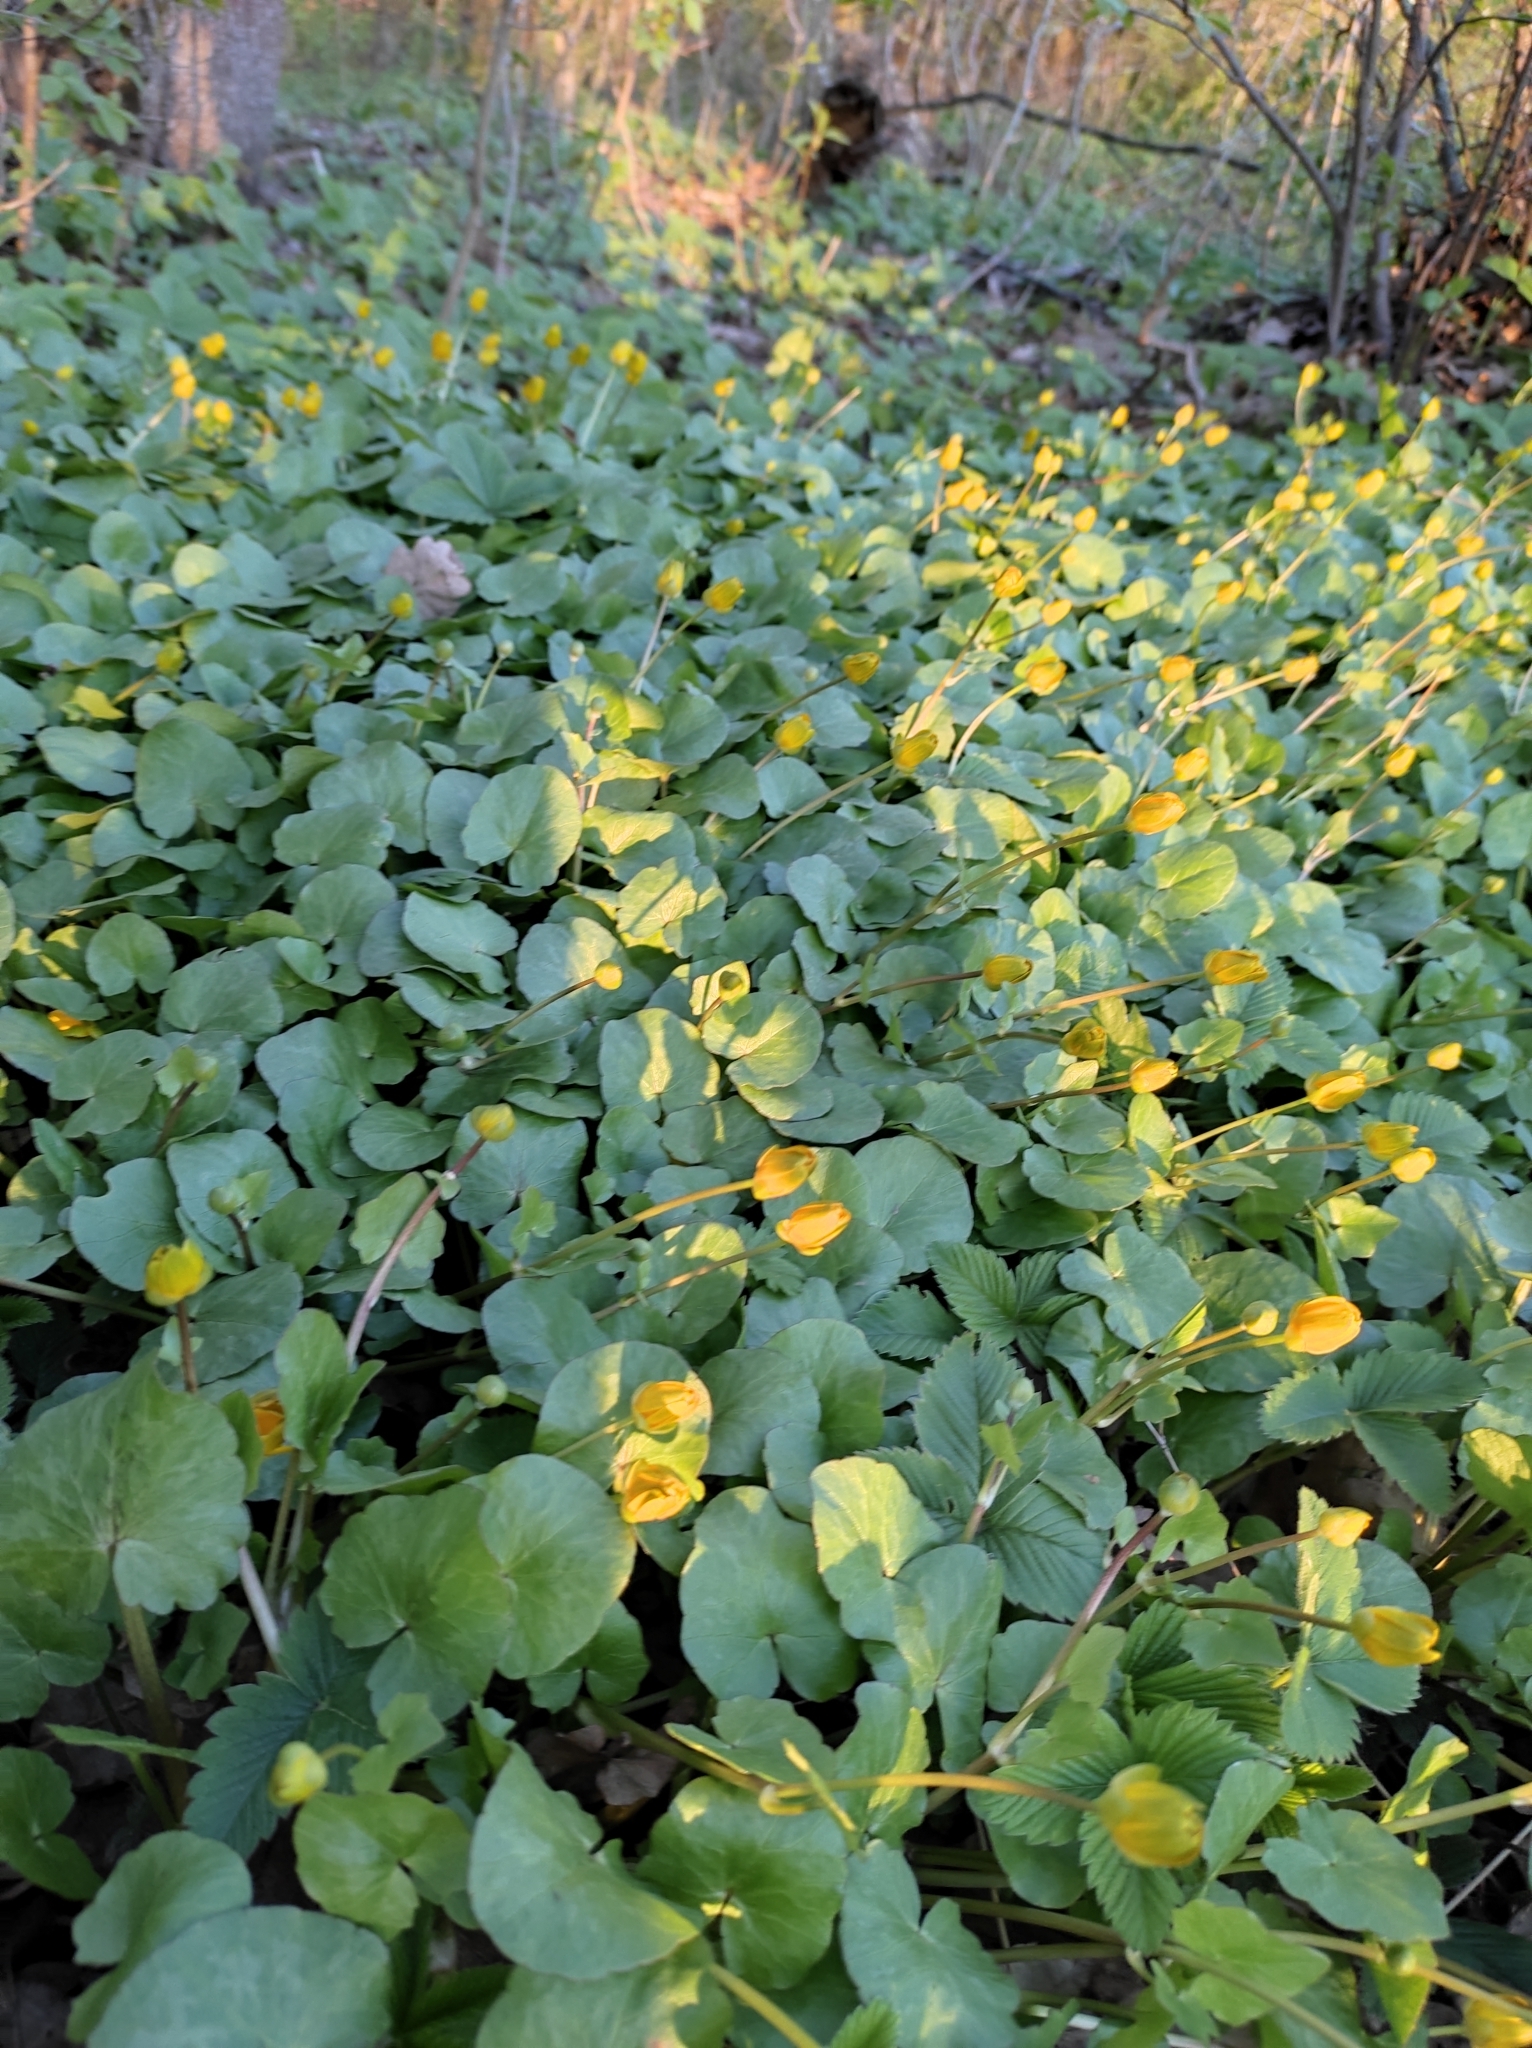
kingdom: Plantae
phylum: Tracheophyta
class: Magnoliopsida
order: Ranunculales
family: Ranunculaceae
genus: Ficaria
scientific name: Ficaria verna
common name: Lesser celandine
